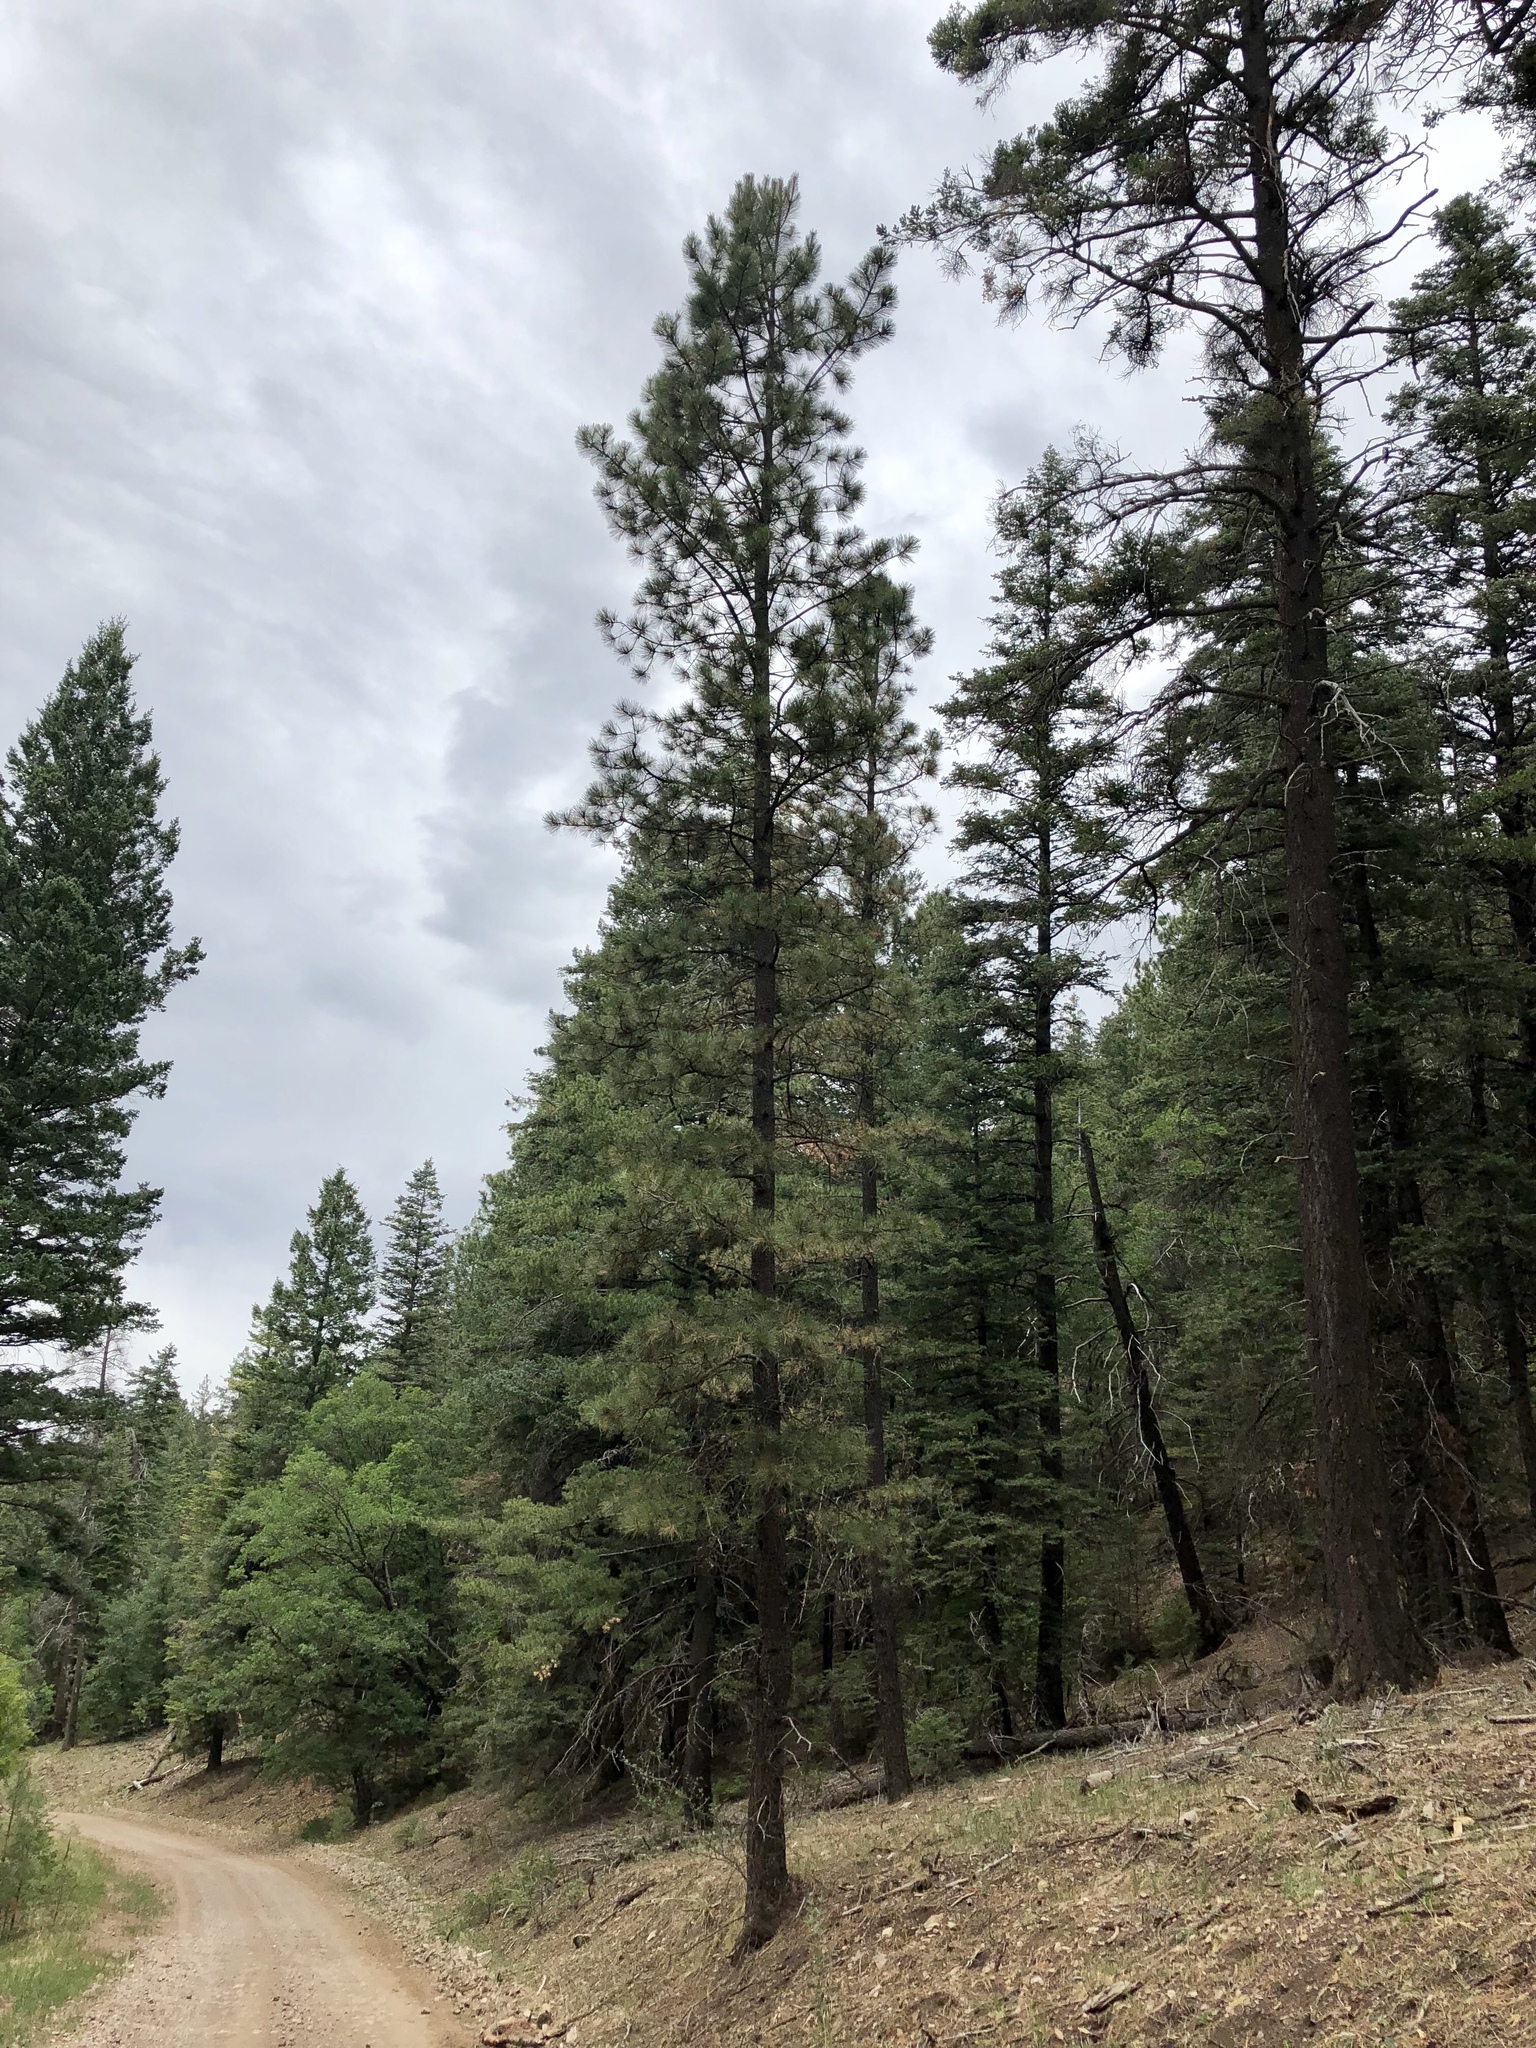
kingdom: Plantae
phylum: Tracheophyta
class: Pinopsida
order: Pinales
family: Pinaceae
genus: Pinus
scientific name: Pinus ponderosa
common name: Western yellow-pine
